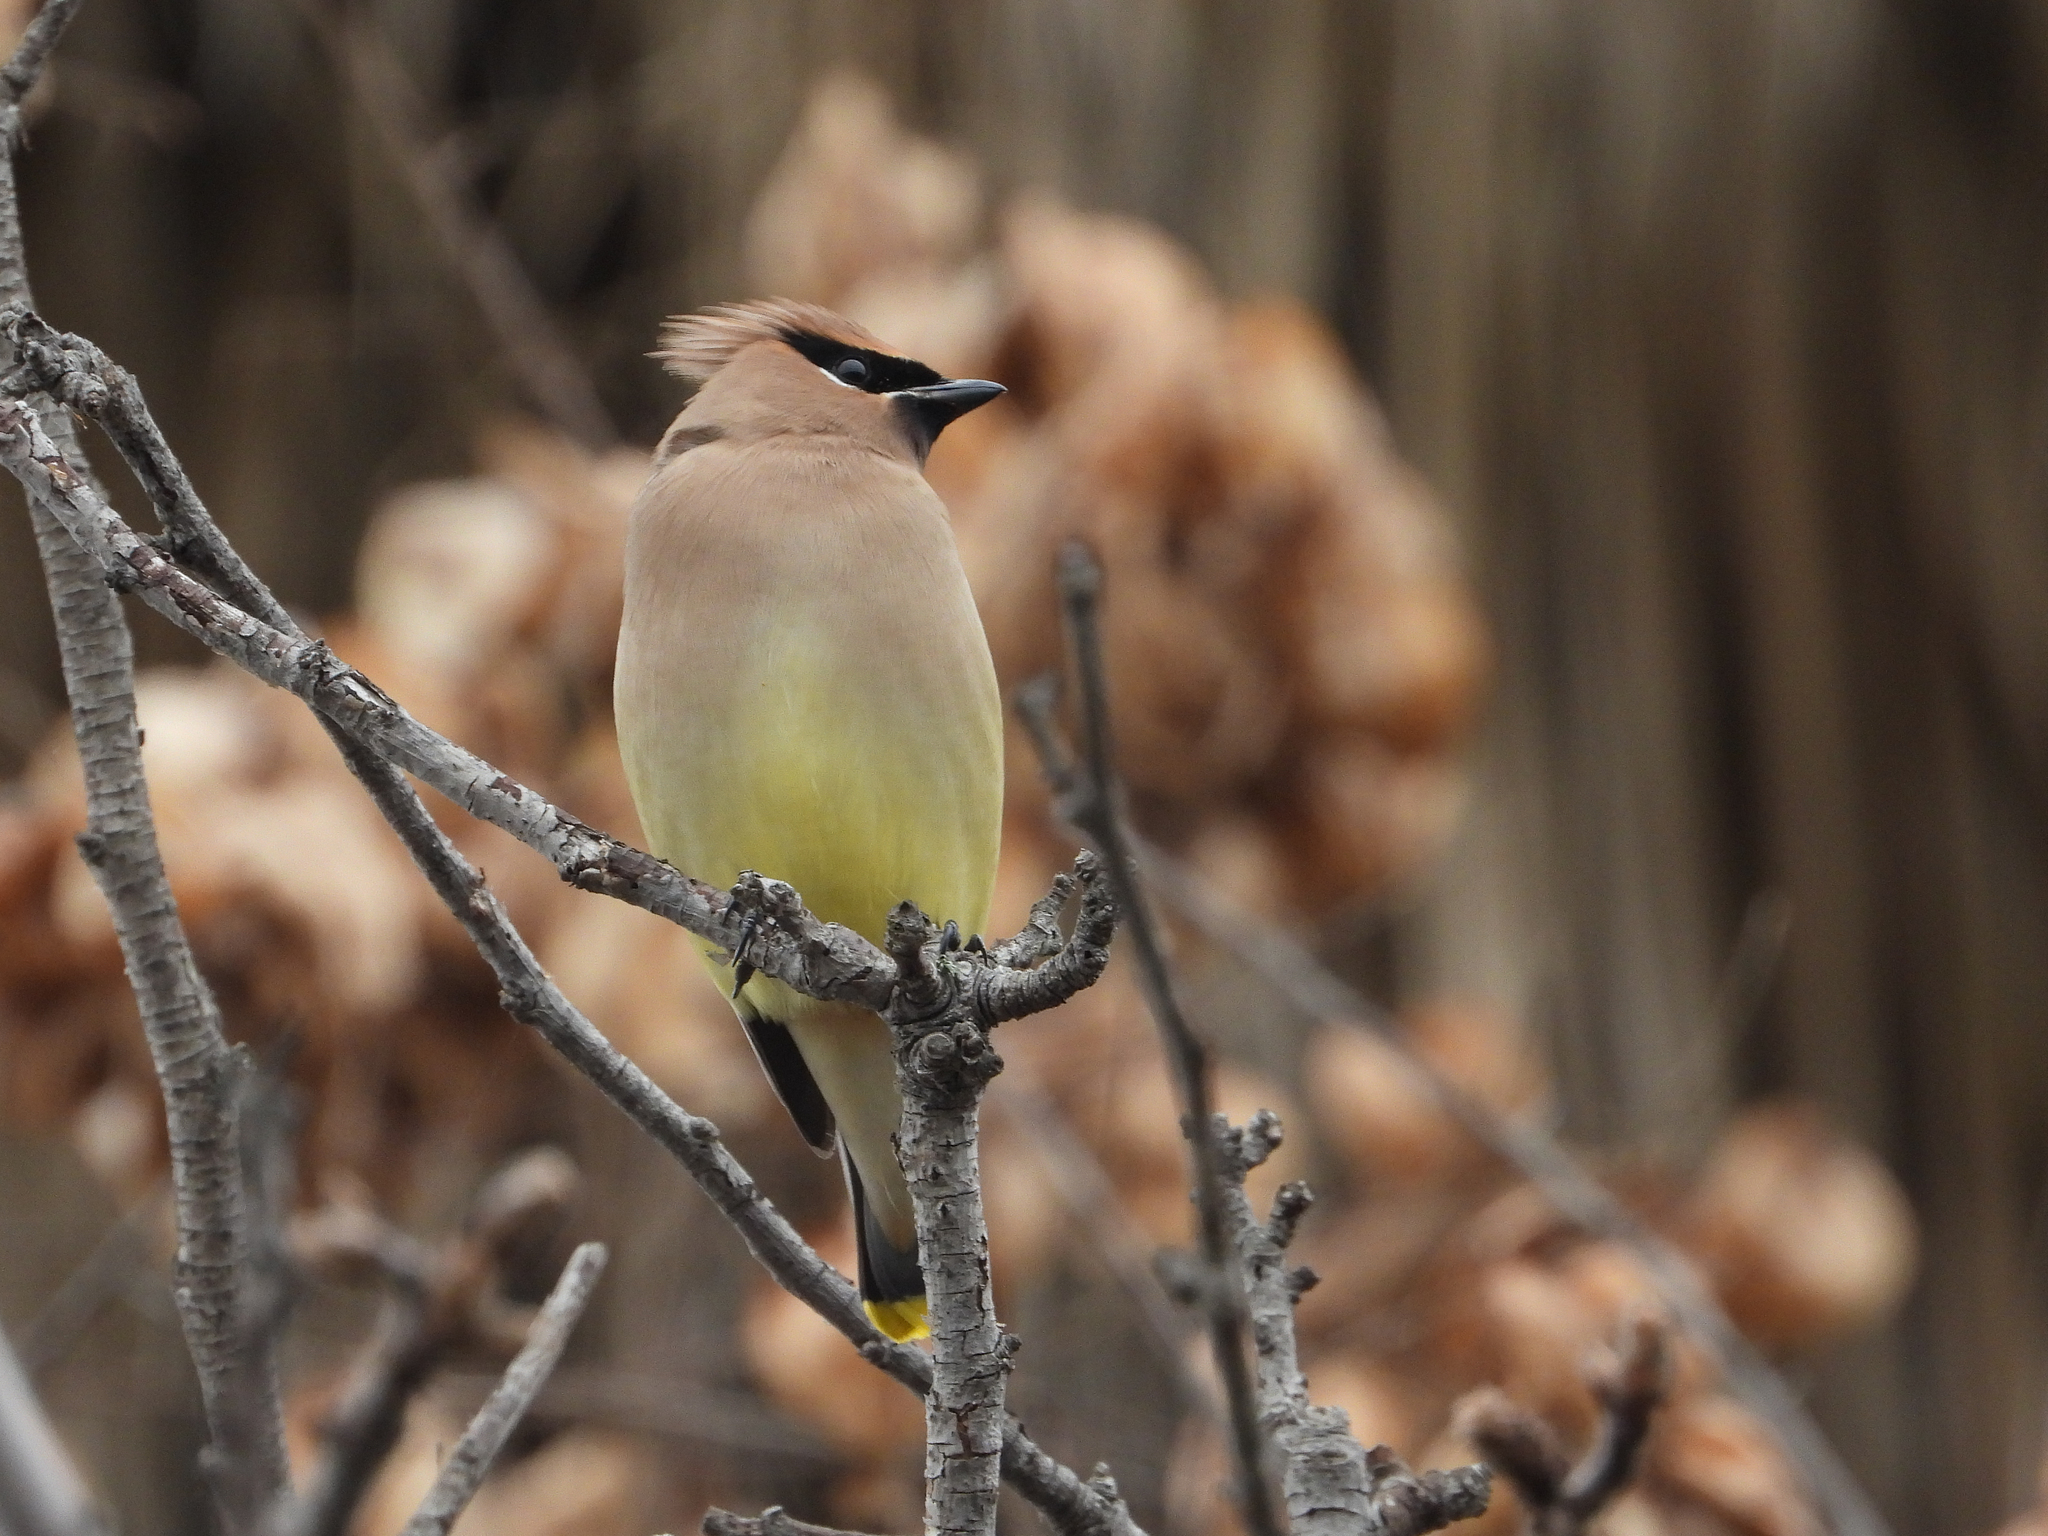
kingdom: Animalia
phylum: Chordata
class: Aves
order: Passeriformes
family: Bombycillidae
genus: Bombycilla
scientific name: Bombycilla cedrorum
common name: Cedar waxwing
